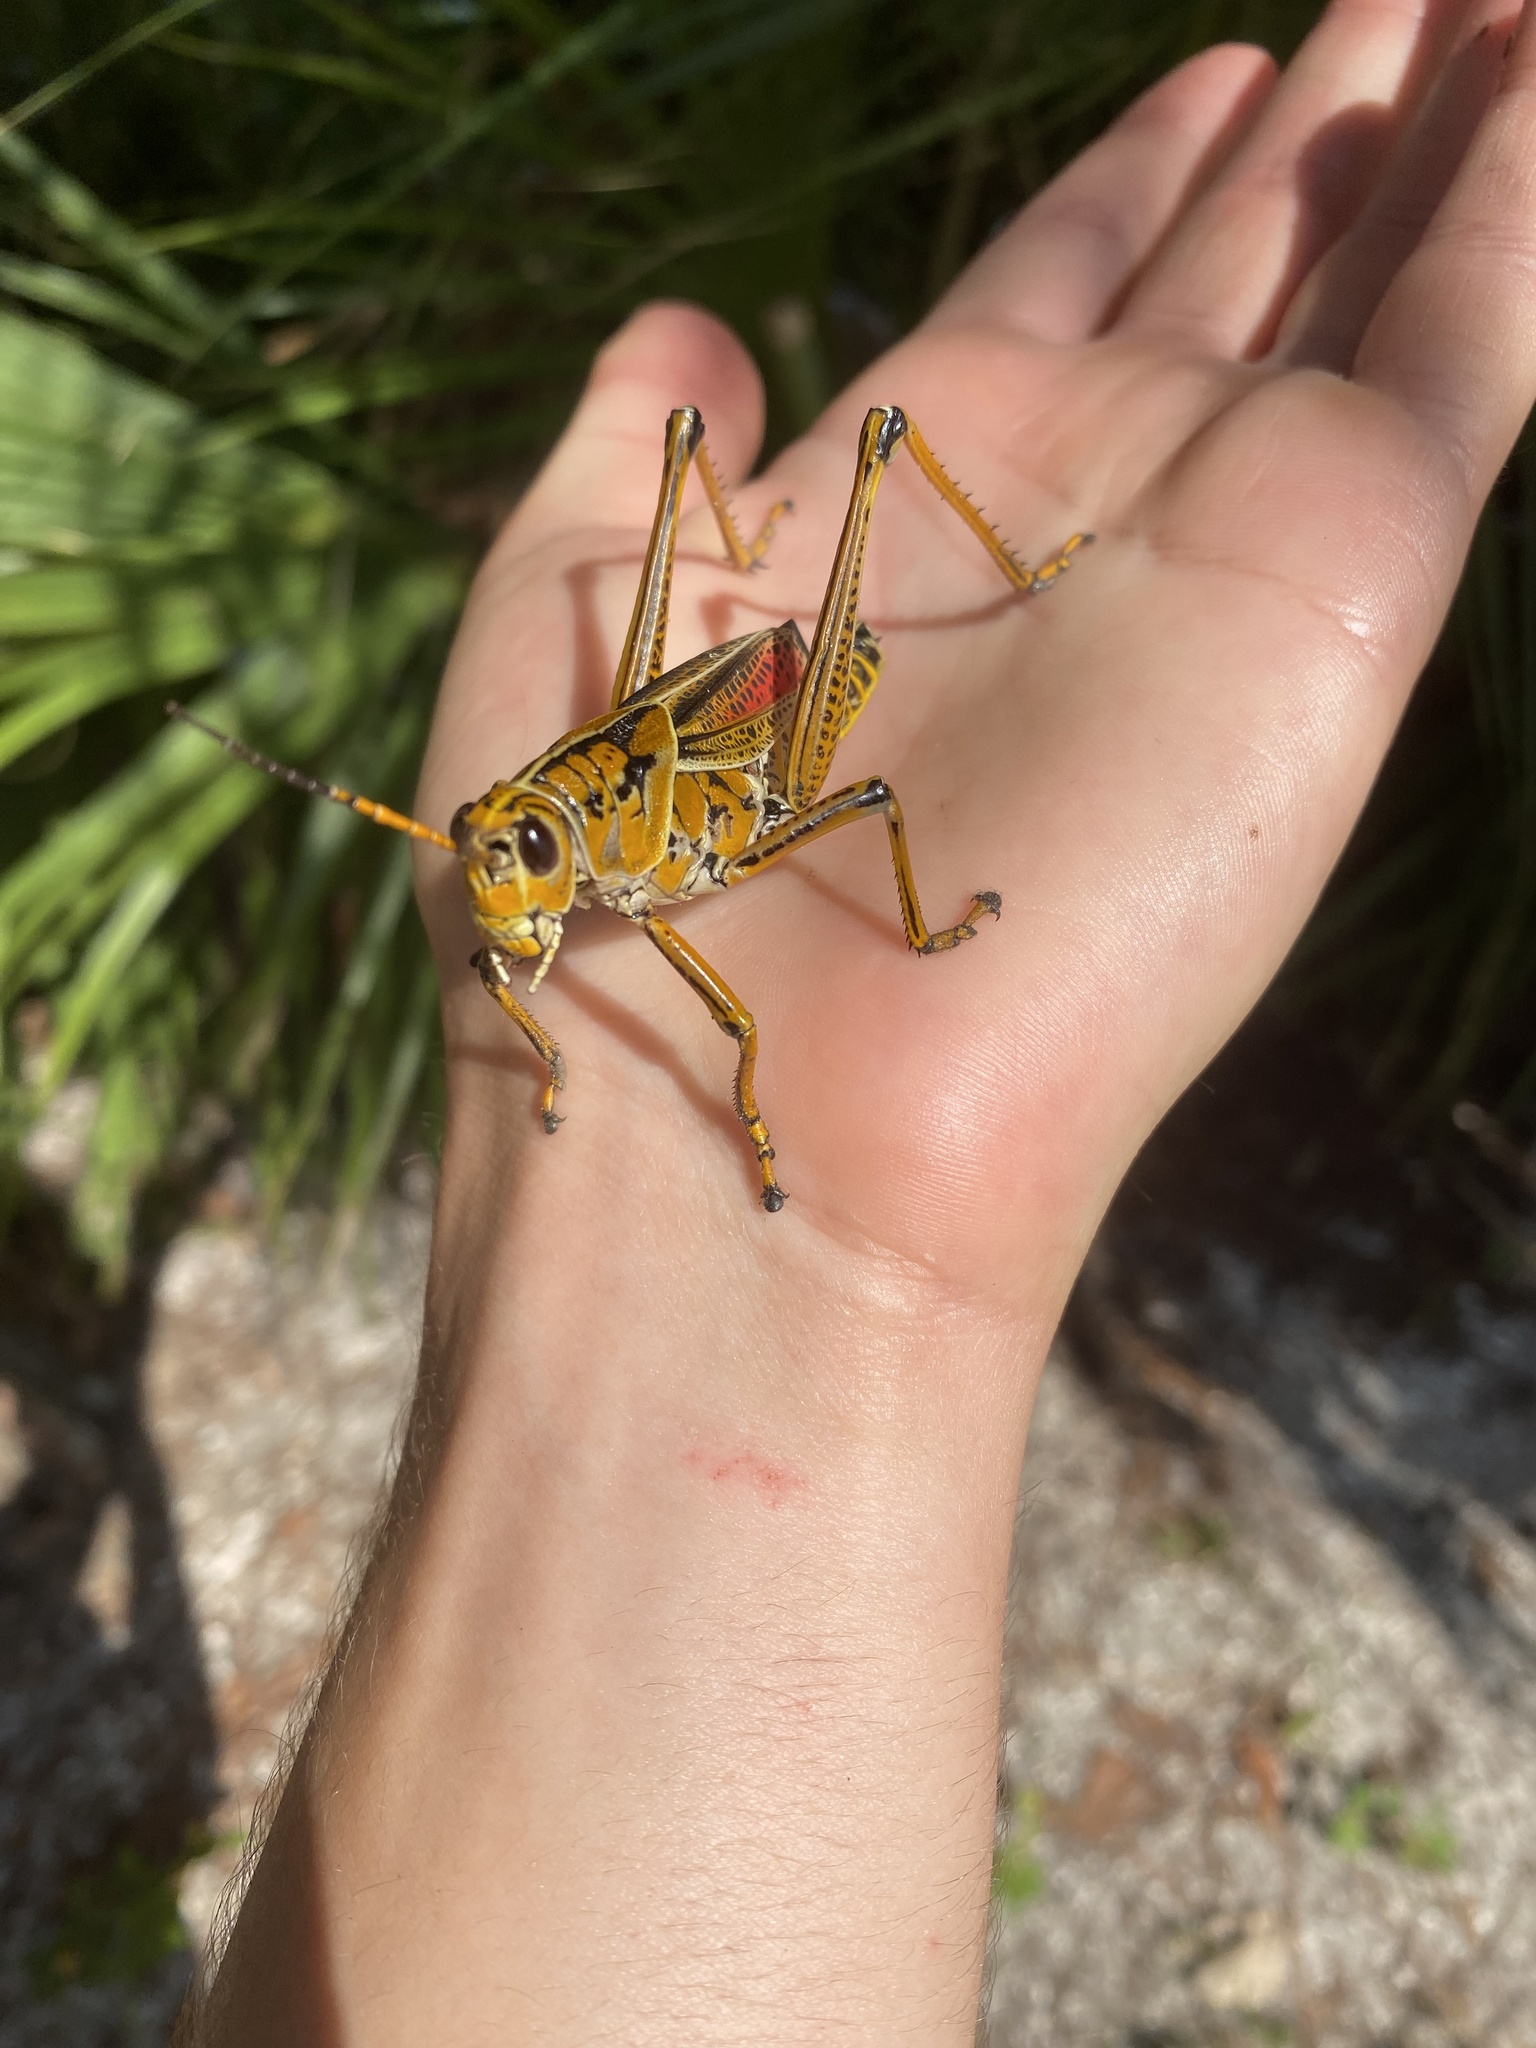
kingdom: Animalia
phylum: Arthropoda
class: Insecta
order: Orthoptera
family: Romaleidae
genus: Romalea
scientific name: Romalea microptera
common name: Eastern lubber grasshopper
